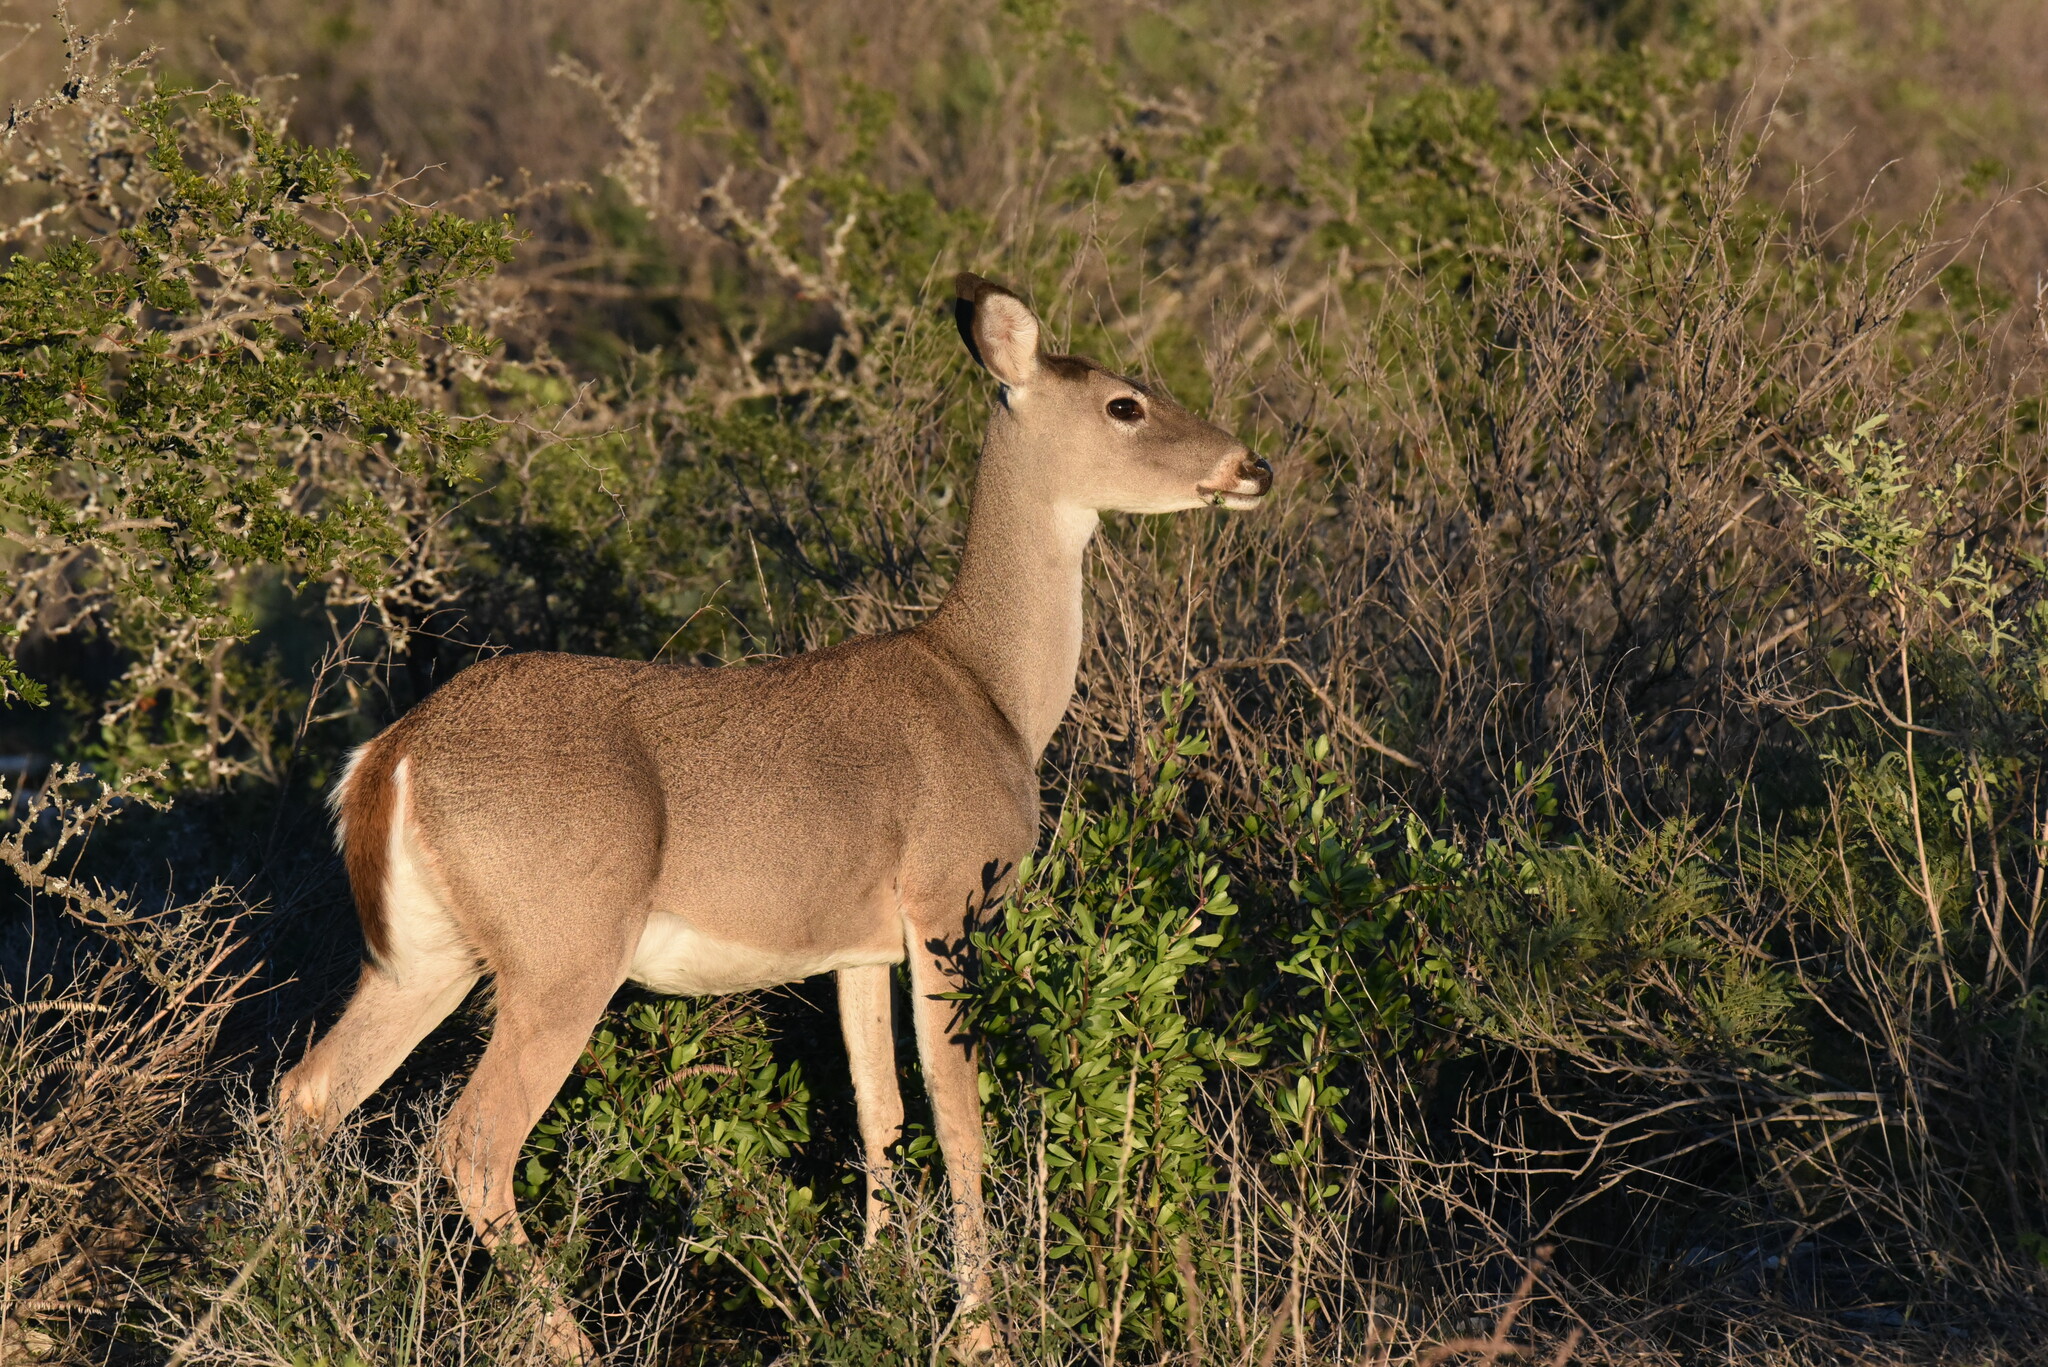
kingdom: Animalia
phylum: Chordata
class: Mammalia
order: Artiodactyla
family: Cervidae
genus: Odocoileus
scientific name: Odocoileus virginianus
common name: White-tailed deer
